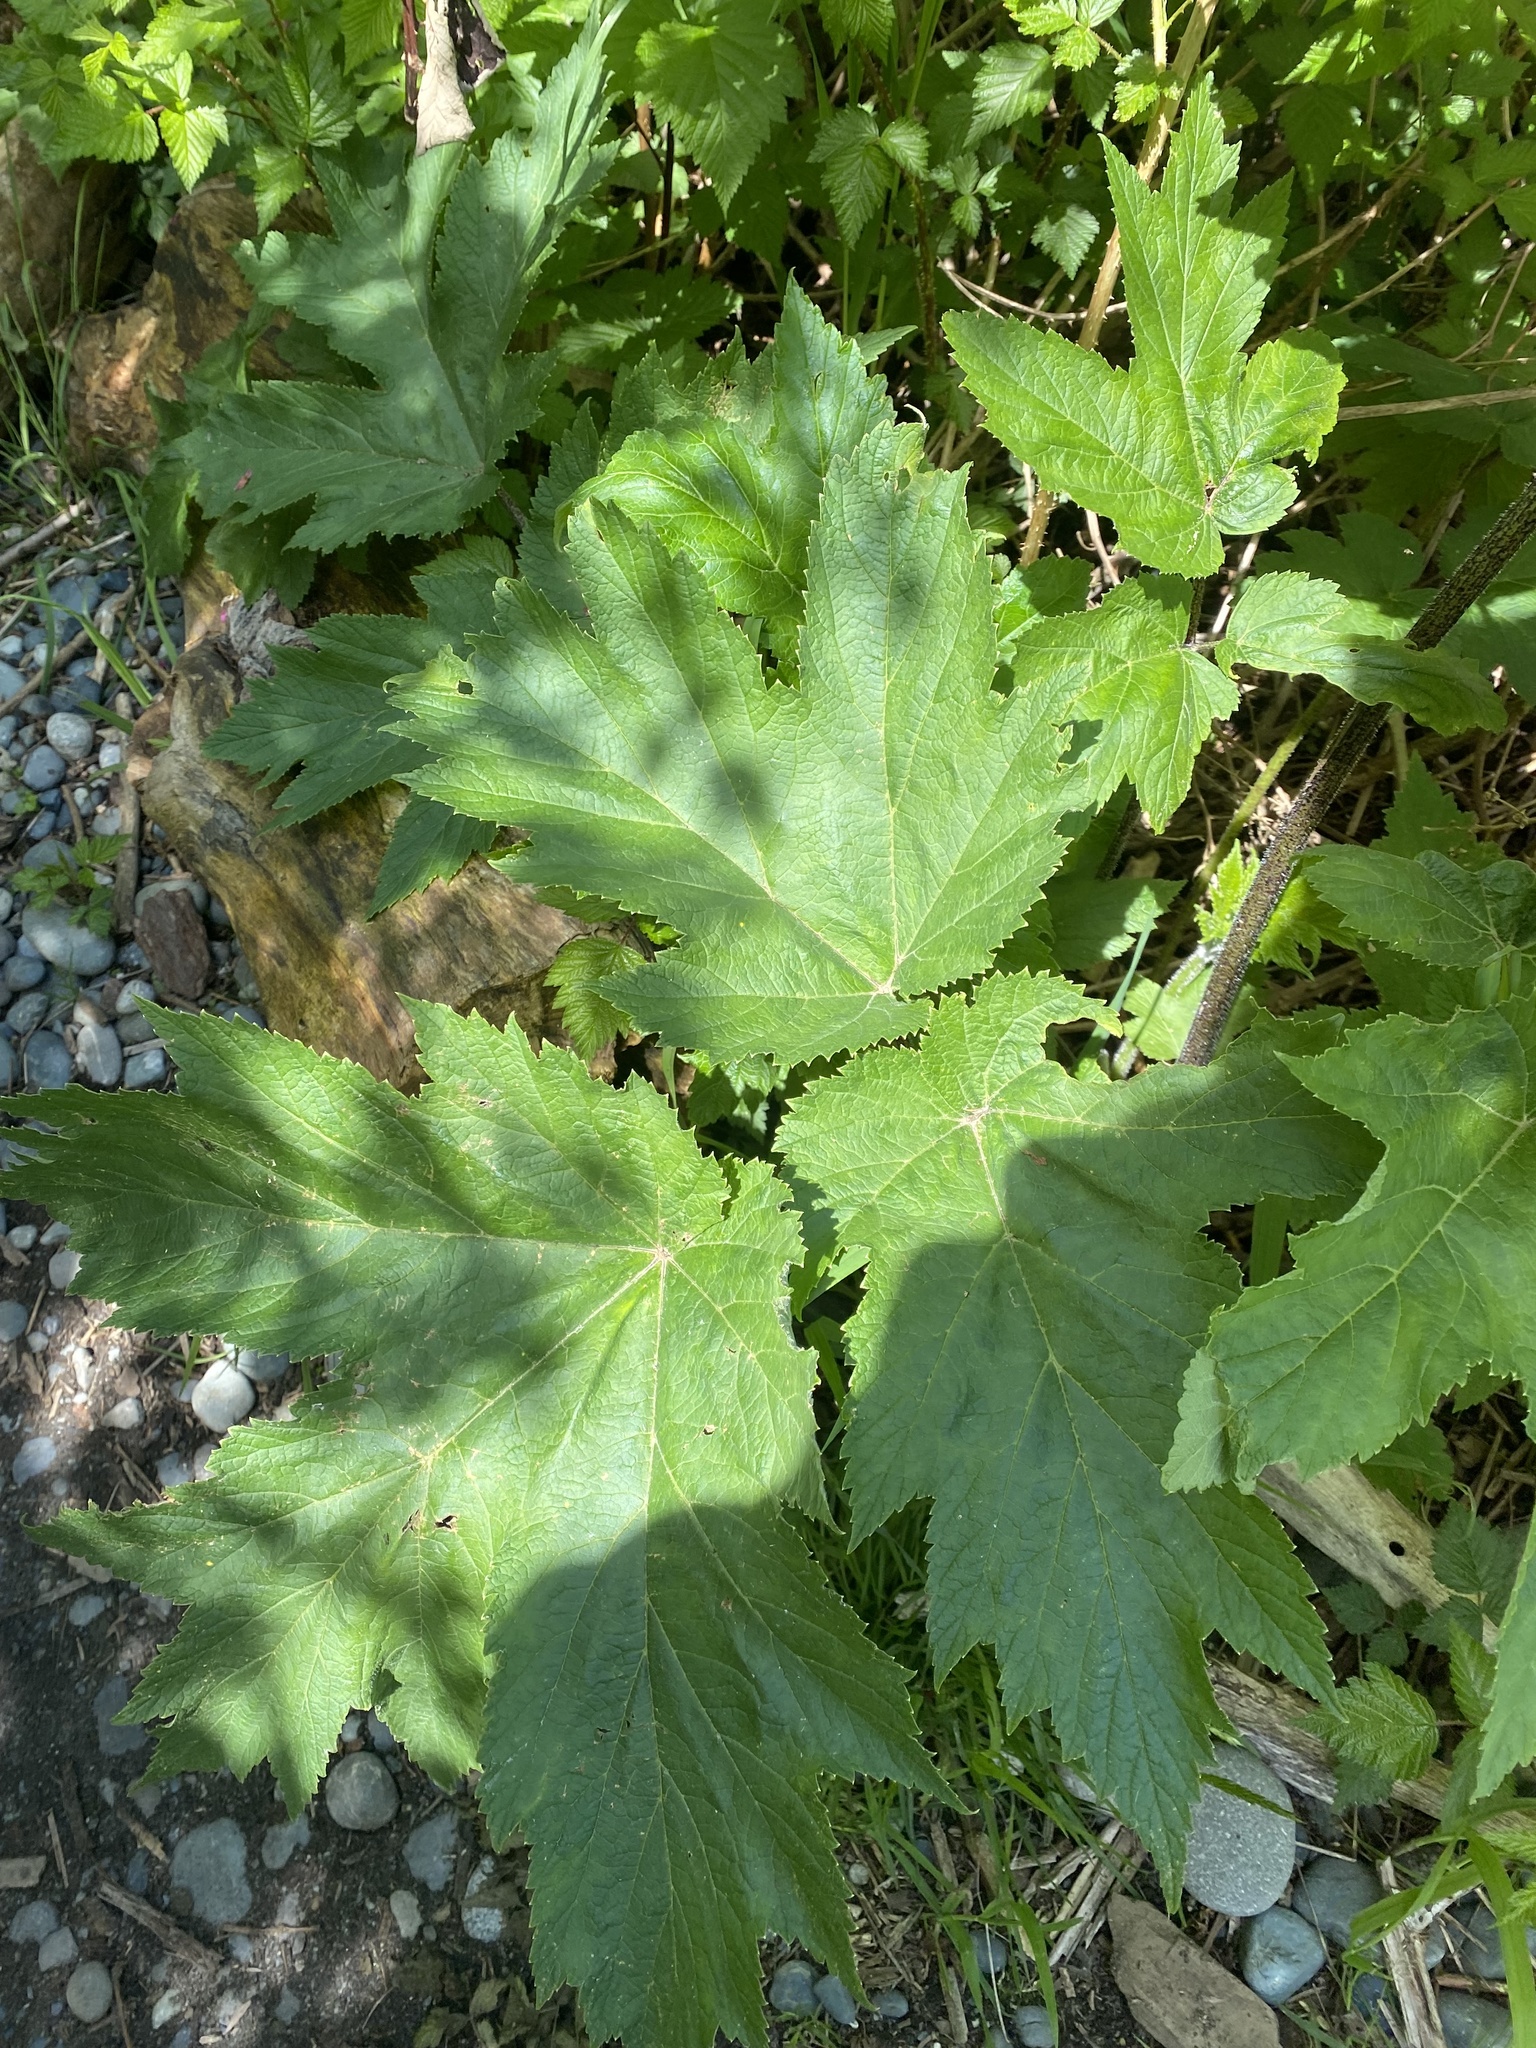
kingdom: Plantae
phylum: Tracheophyta
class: Magnoliopsida
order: Apiales
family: Apiaceae
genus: Heracleum
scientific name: Heracleum maximum
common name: American cow parsnip
